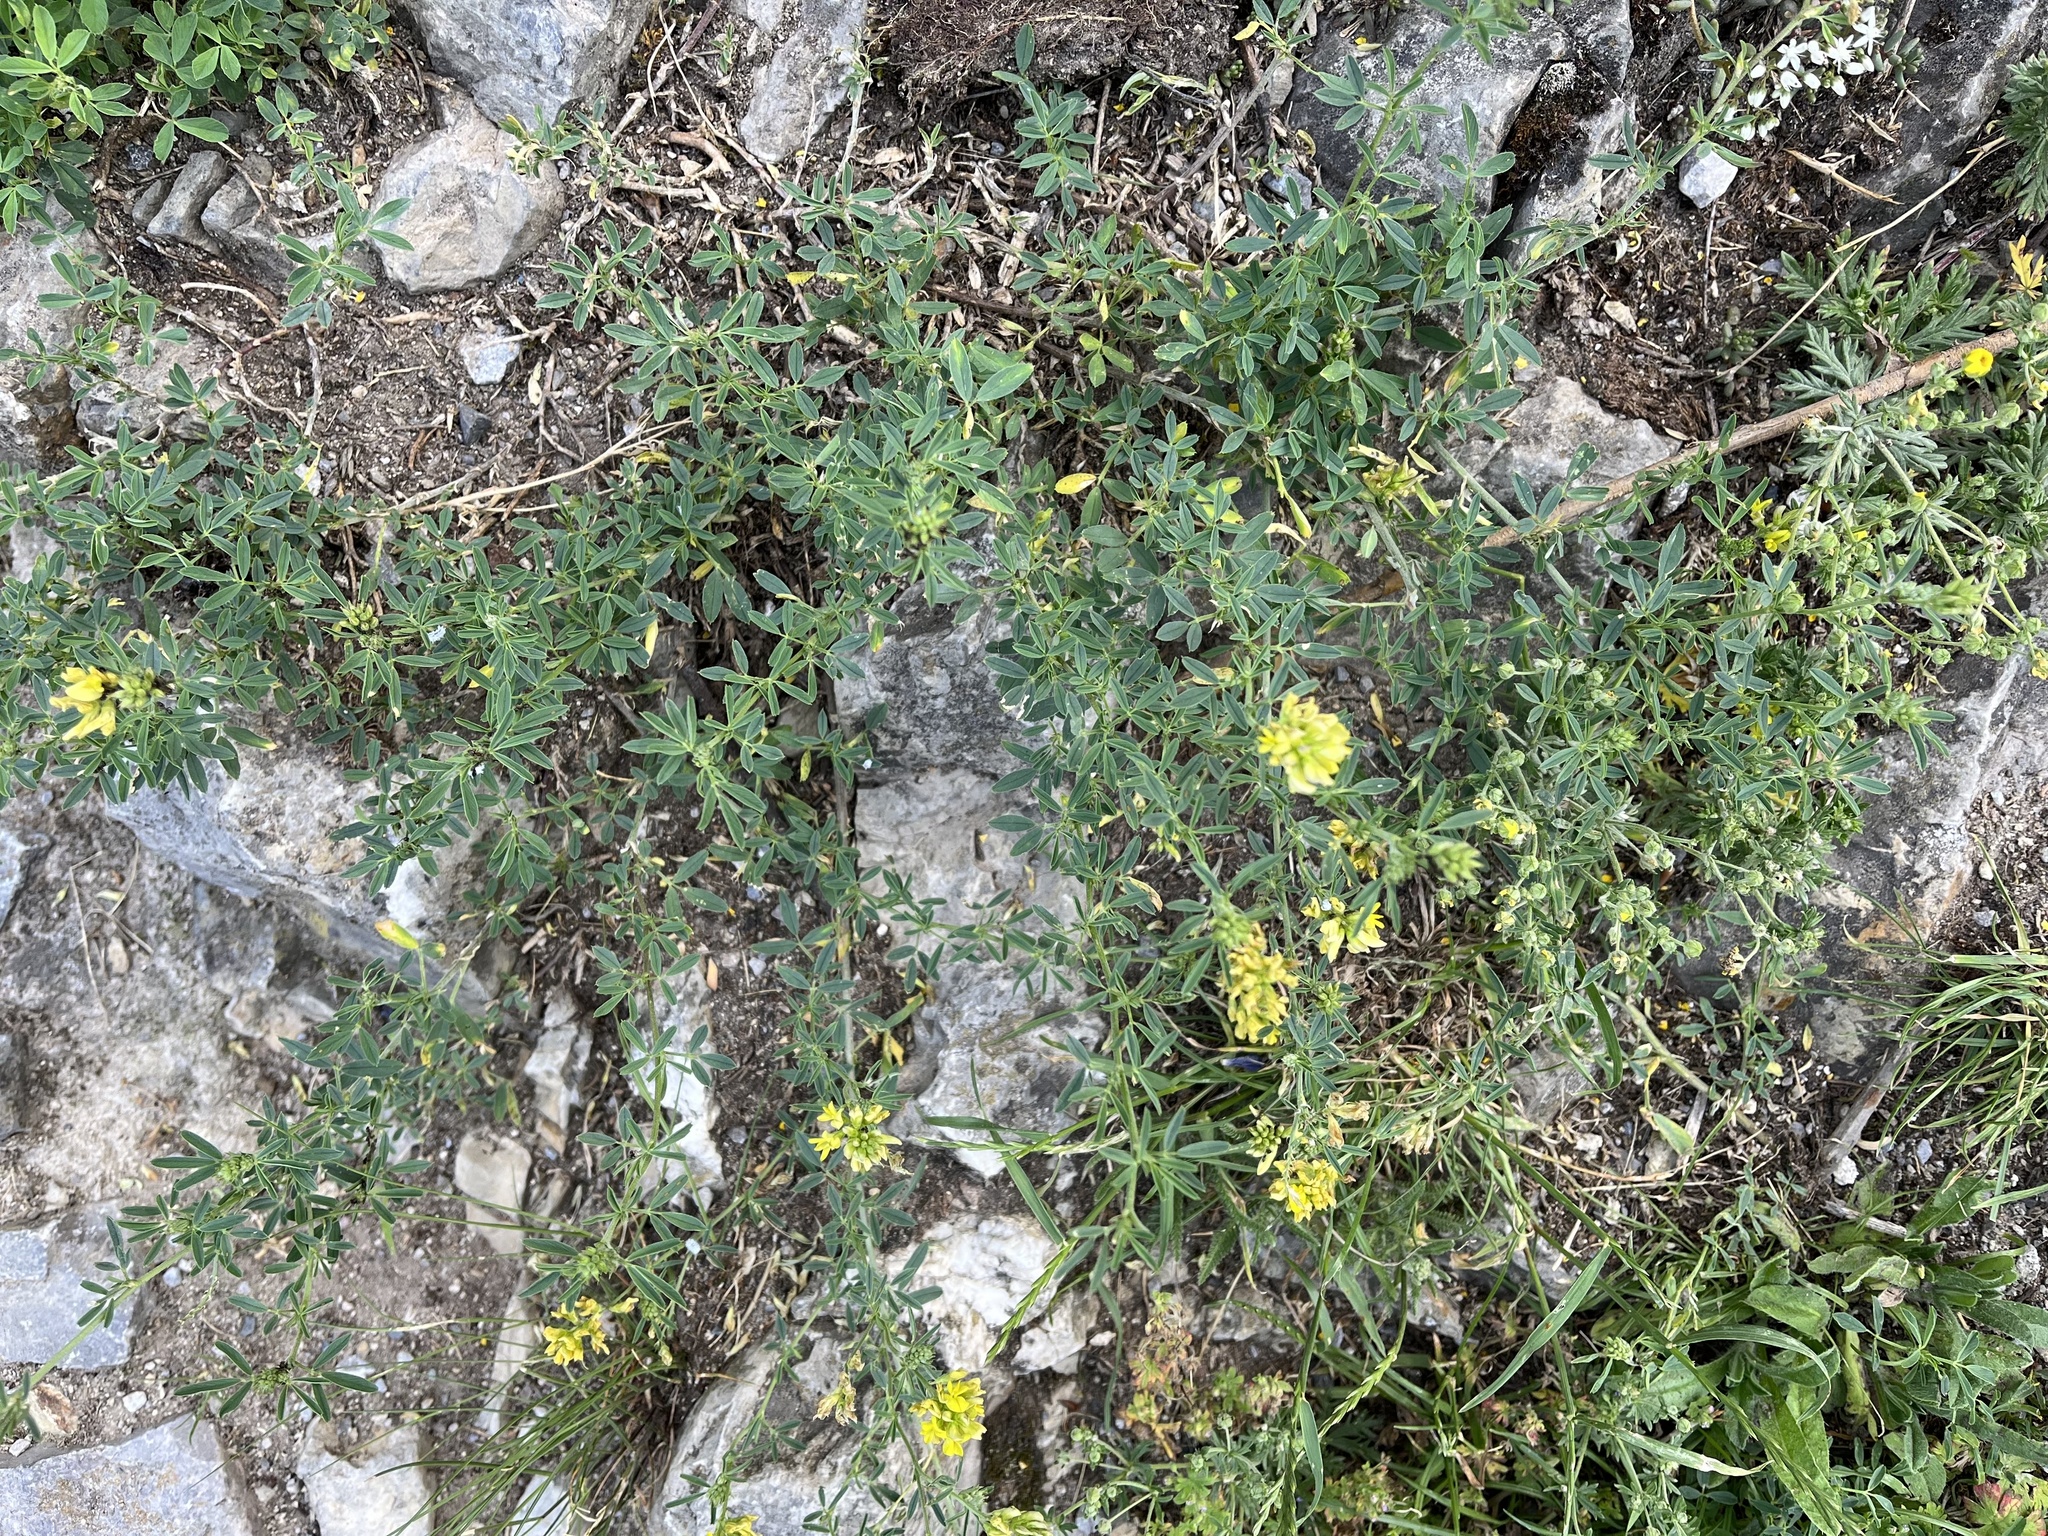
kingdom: Plantae
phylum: Tracheophyta
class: Magnoliopsida
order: Fabales
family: Fabaceae
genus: Medicago
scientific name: Medicago falcata
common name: Sickle medick
